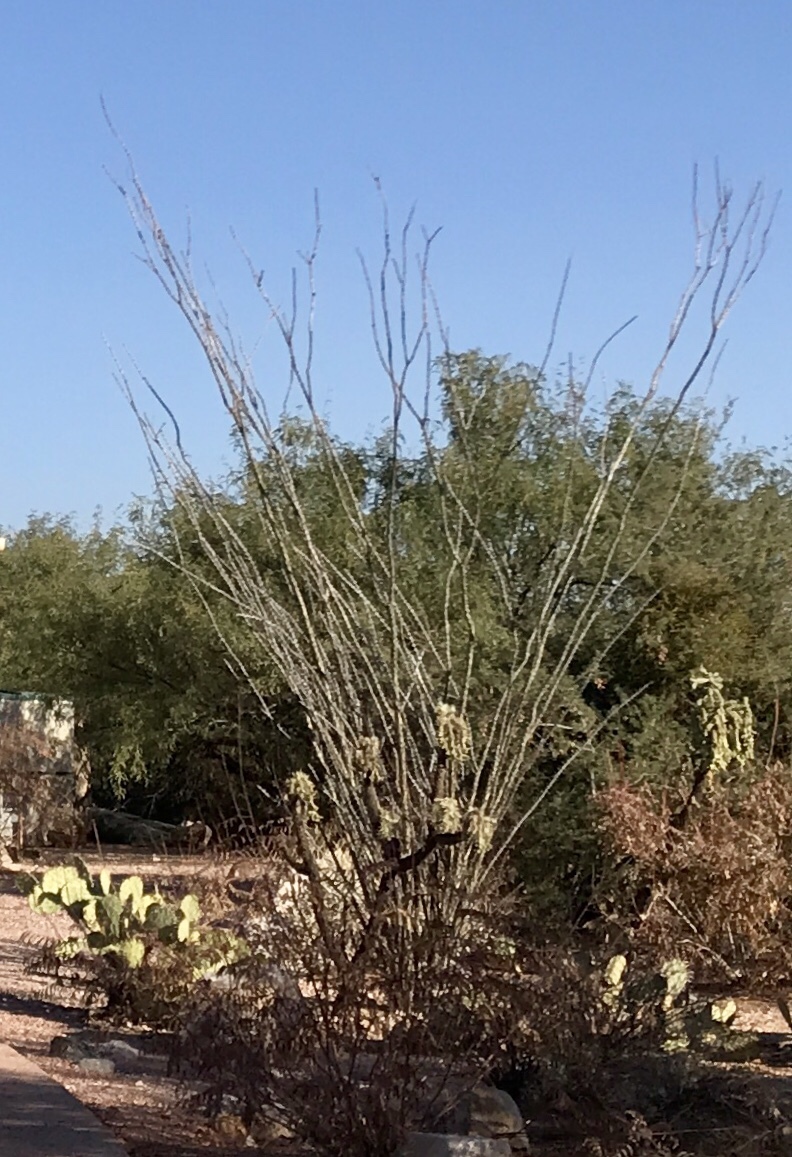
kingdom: Plantae
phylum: Tracheophyta
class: Magnoliopsida
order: Ericales
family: Fouquieriaceae
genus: Fouquieria
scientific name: Fouquieria splendens
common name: Vine-cactus
